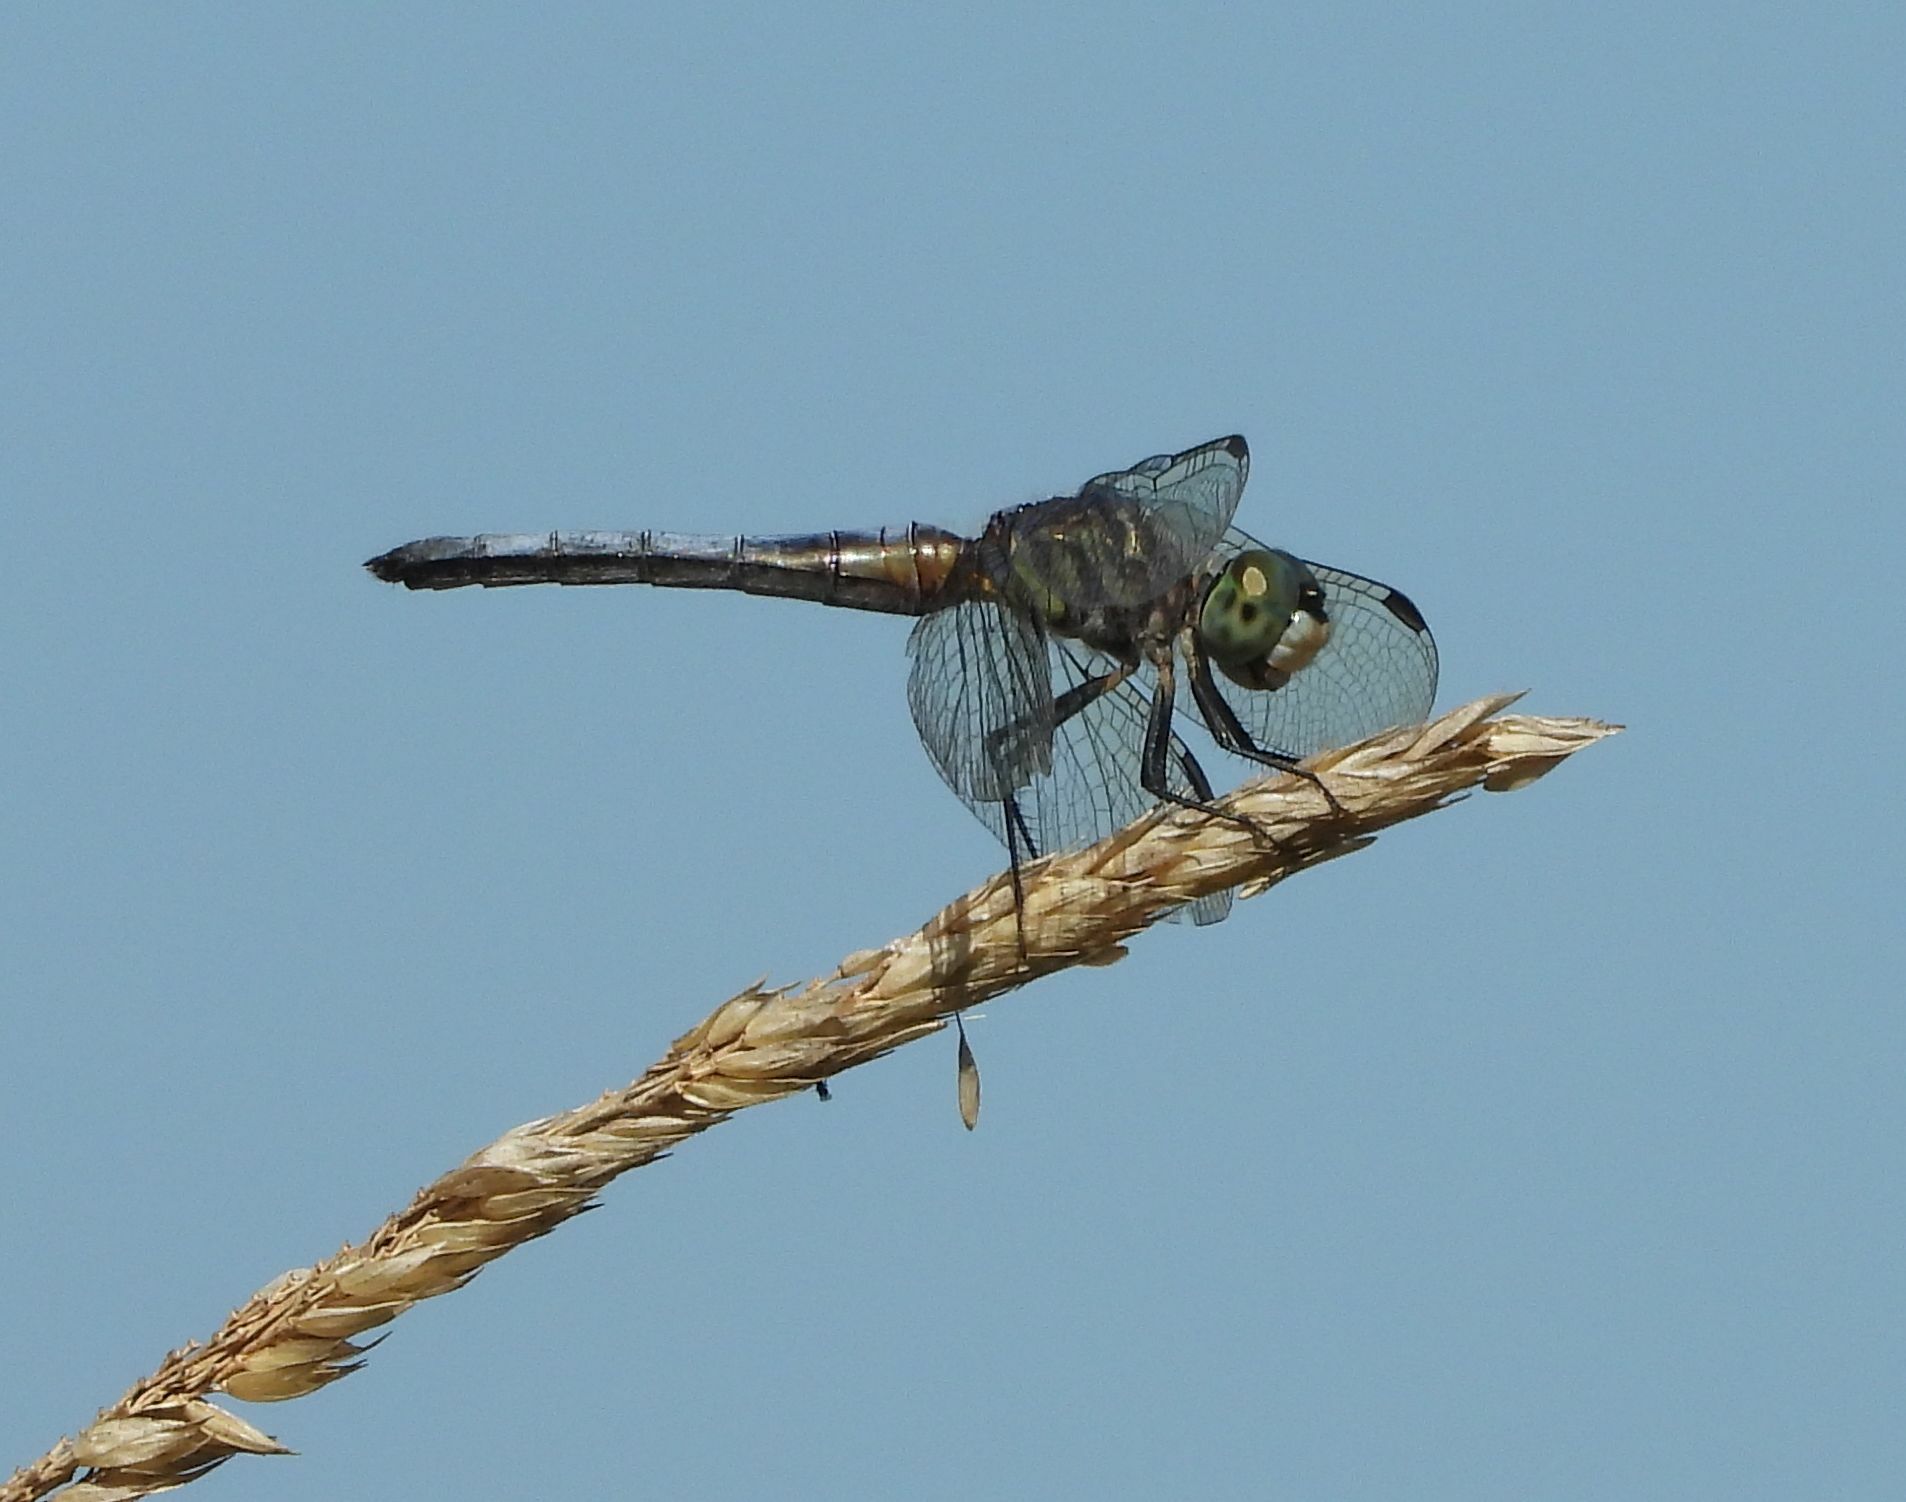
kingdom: Animalia
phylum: Arthropoda
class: Insecta
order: Odonata
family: Libellulidae
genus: Pachydiplax
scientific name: Pachydiplax longipennis
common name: Blue dasher
